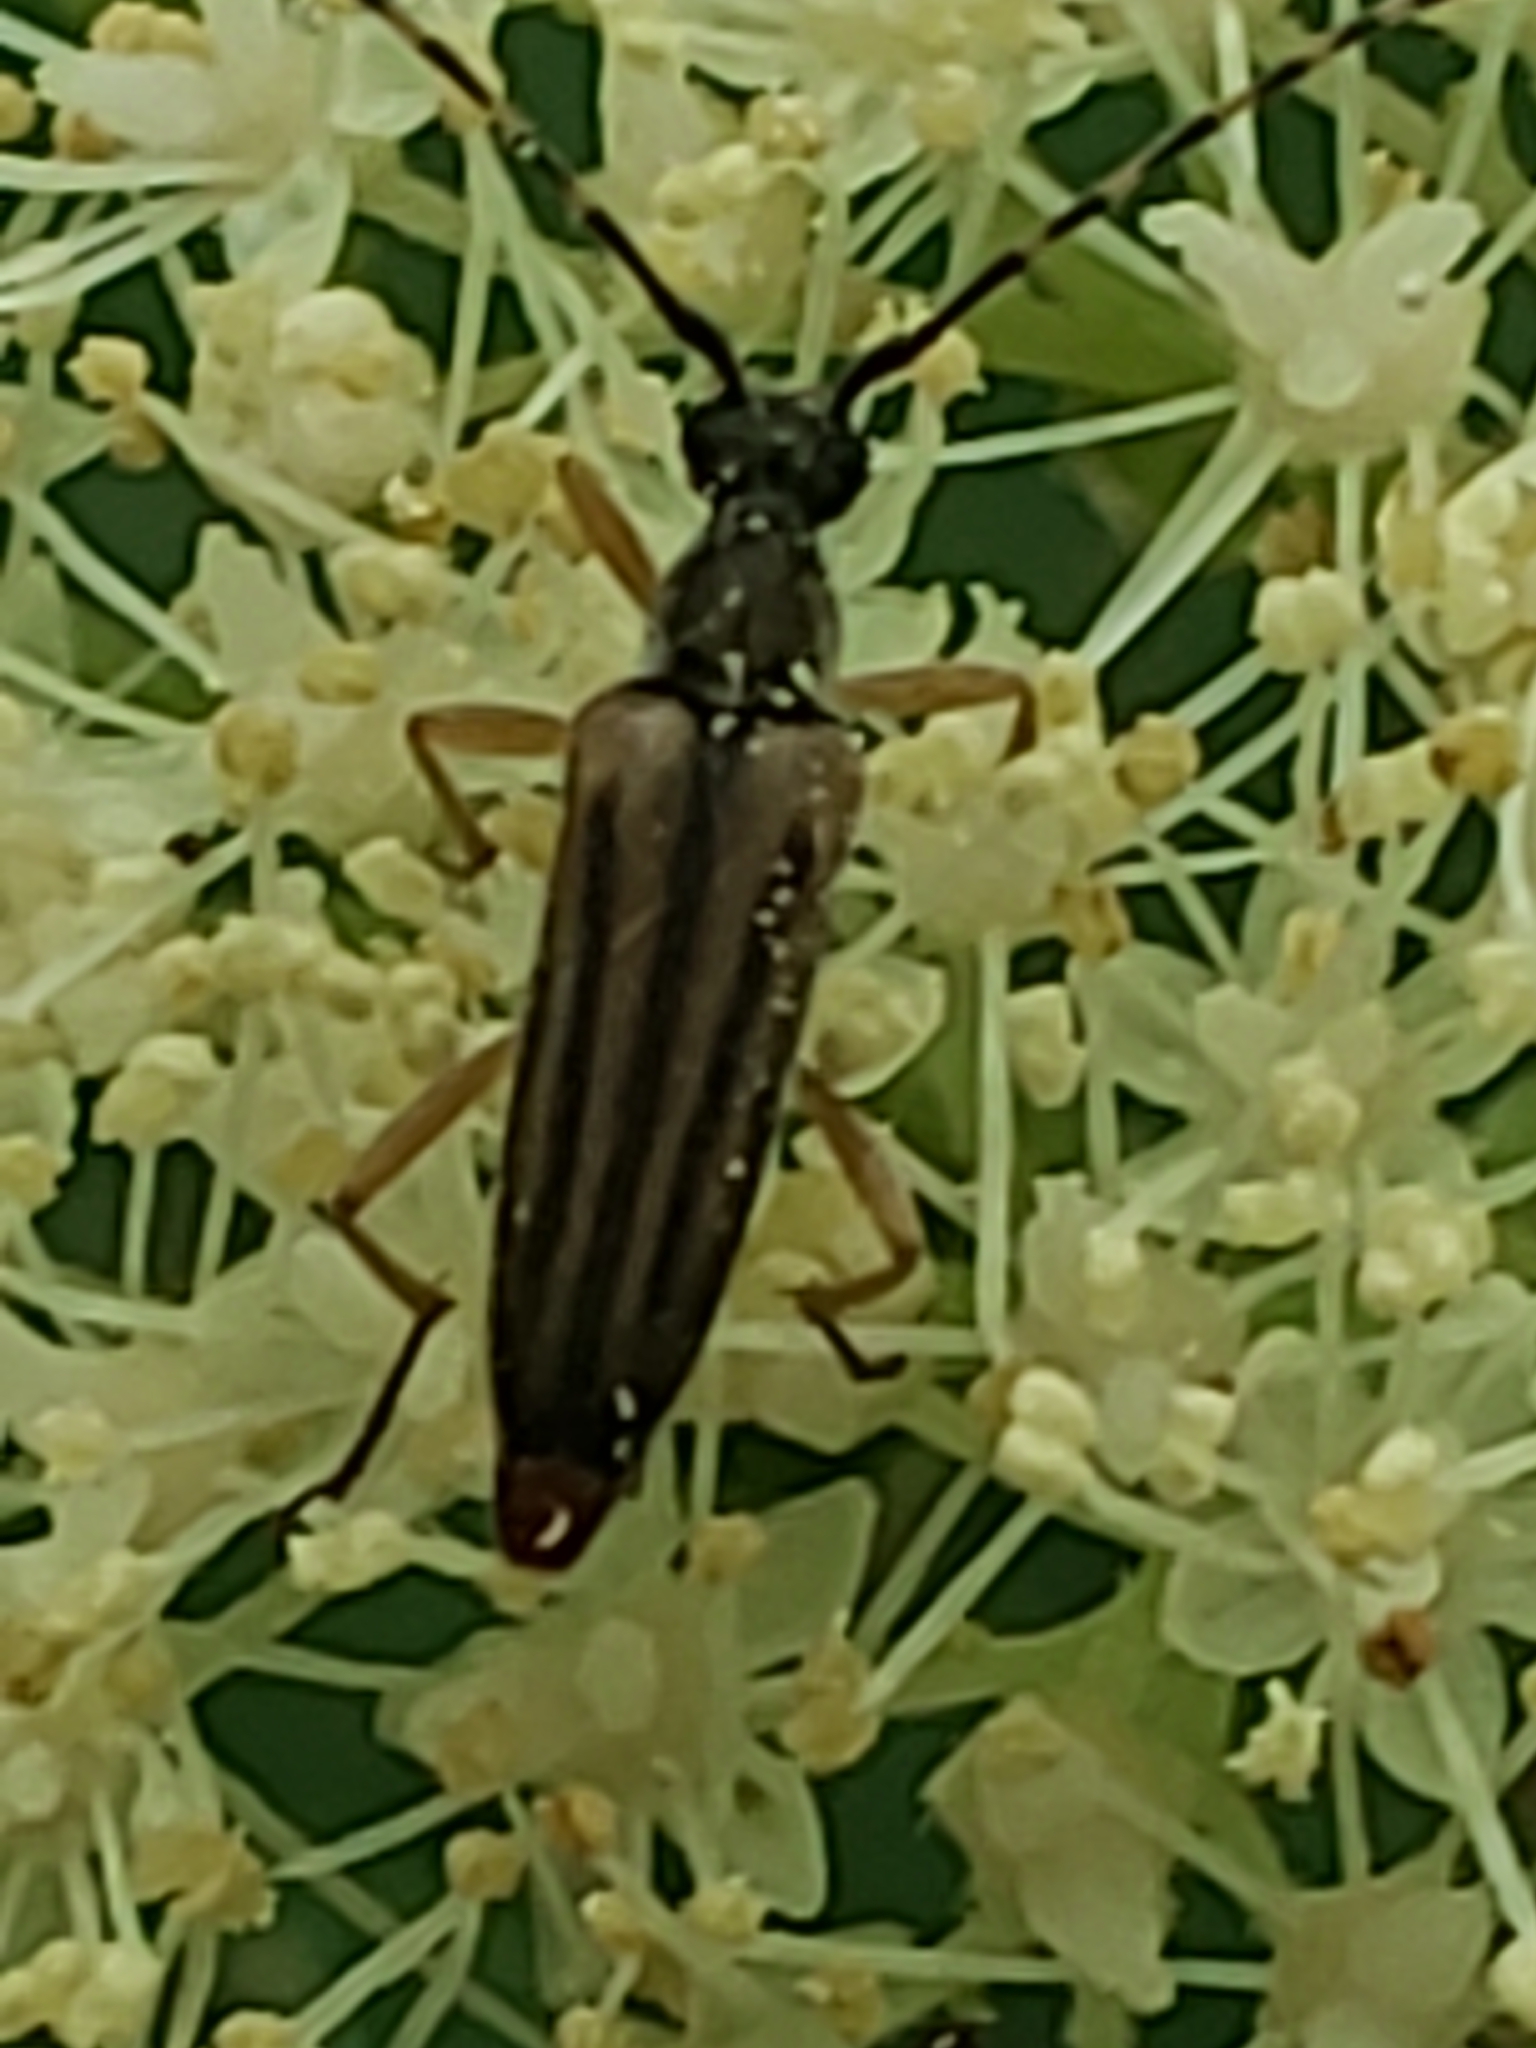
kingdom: Animalia
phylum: Arthropoda
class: Insecta
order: Coleoptera
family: Cerambycidae
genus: Analeptura
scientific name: Analeptura lineola
